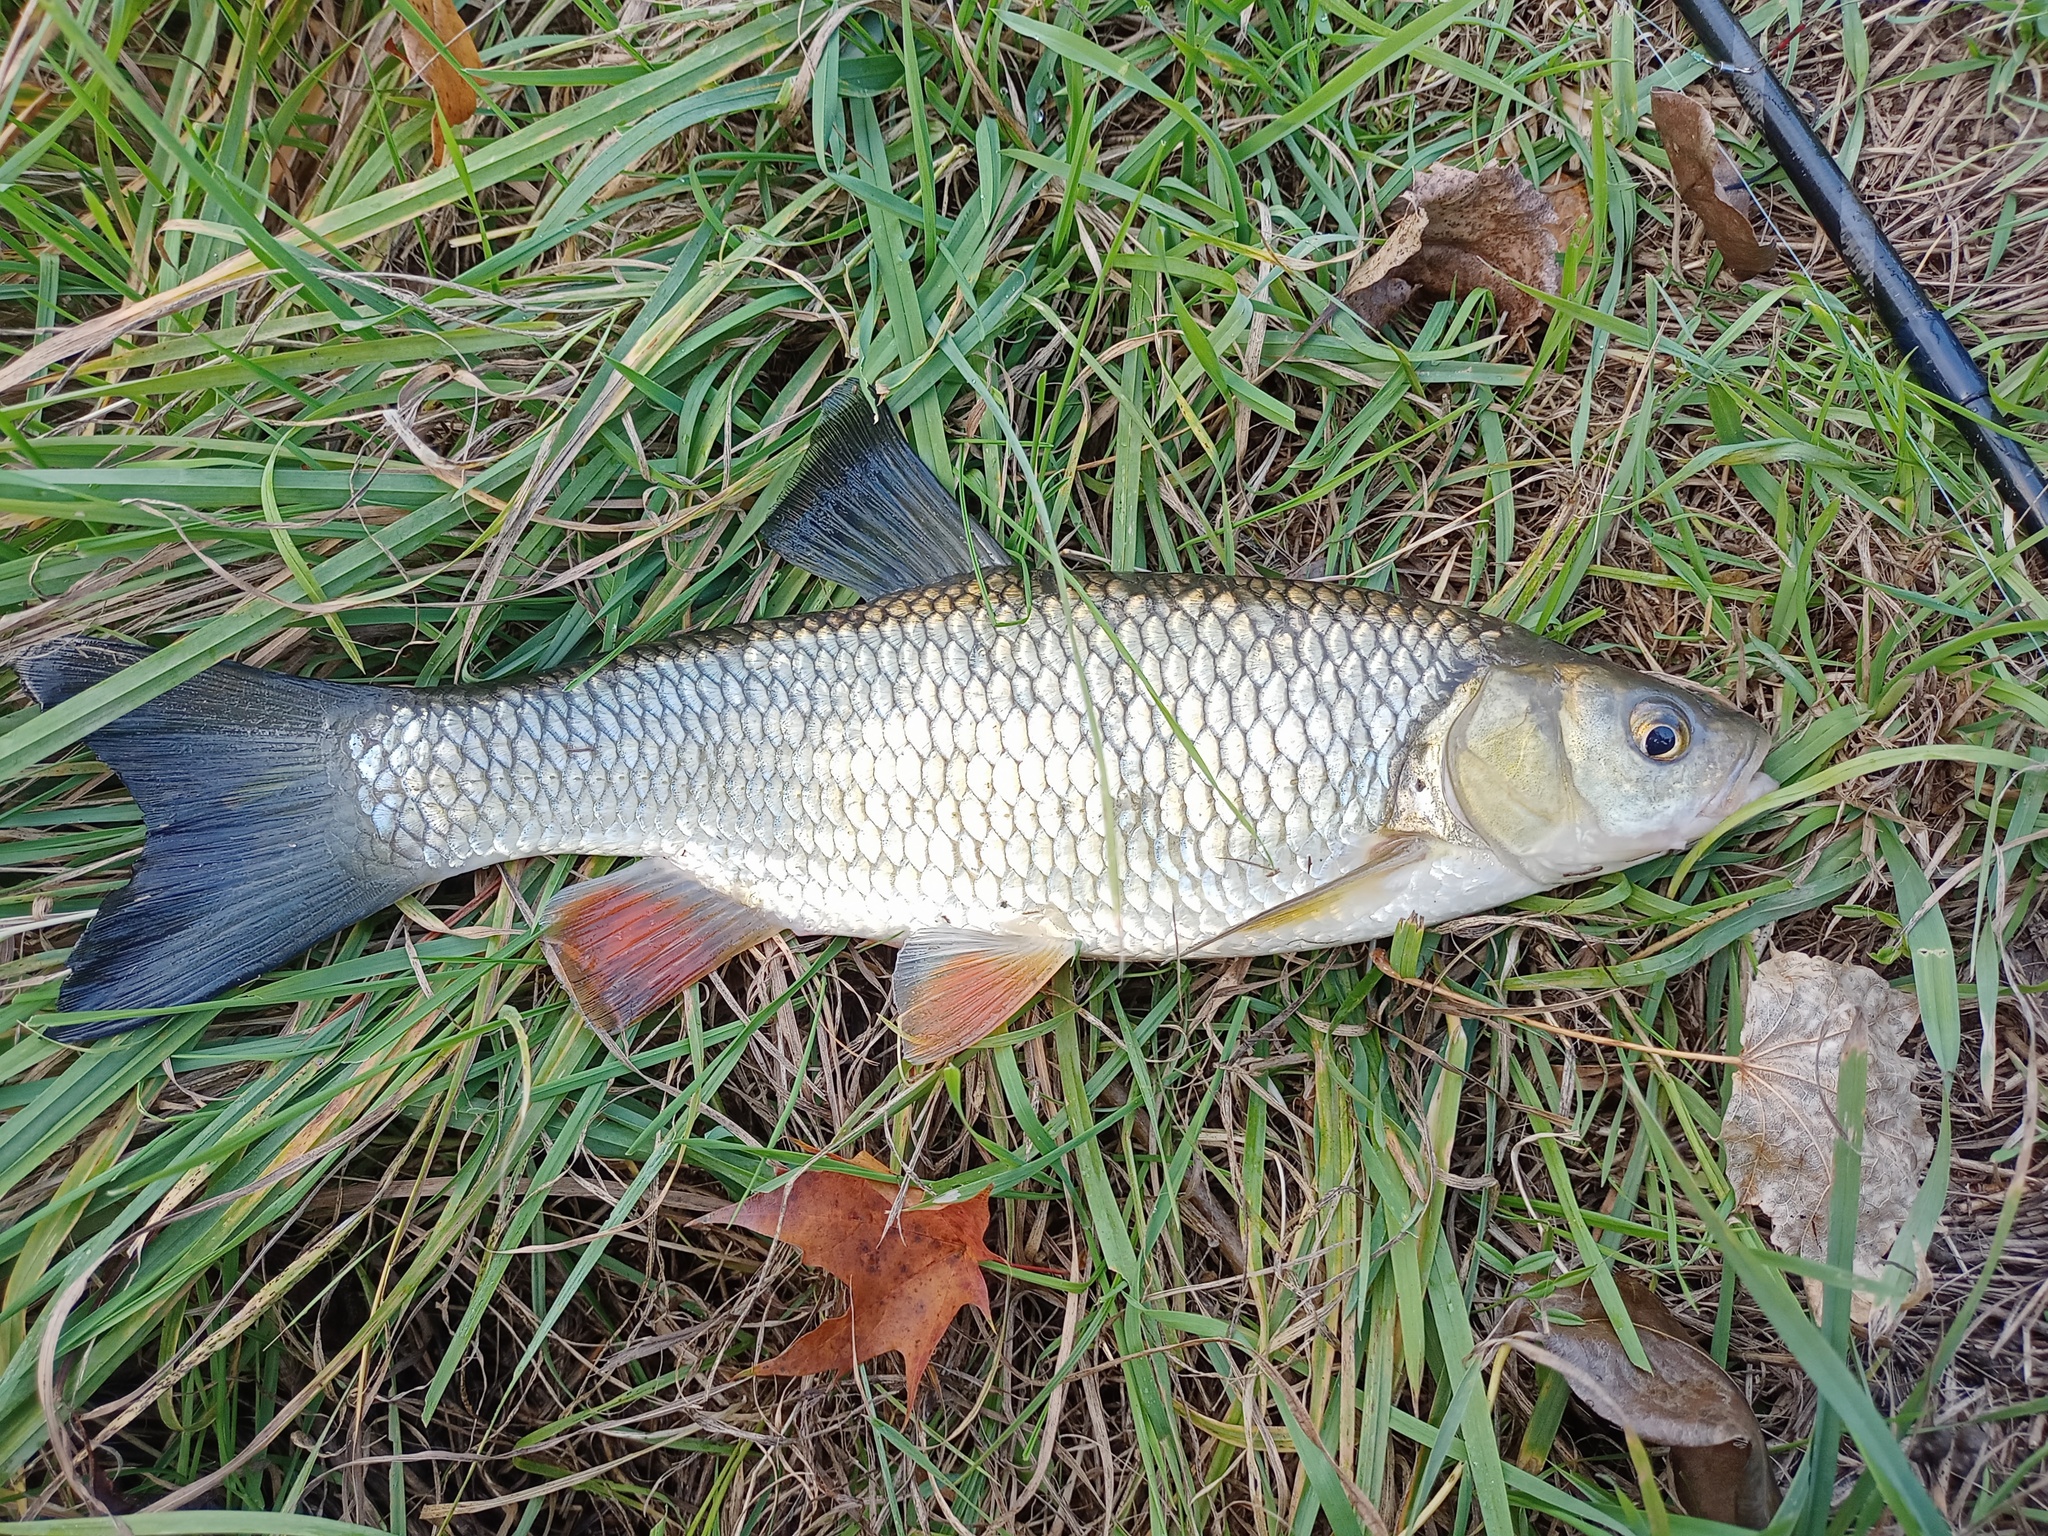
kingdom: Animalia
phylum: Chordata
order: Cypriniformes
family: Cyprinidae
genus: Squalius
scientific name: Squalius cephalus
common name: Chub
